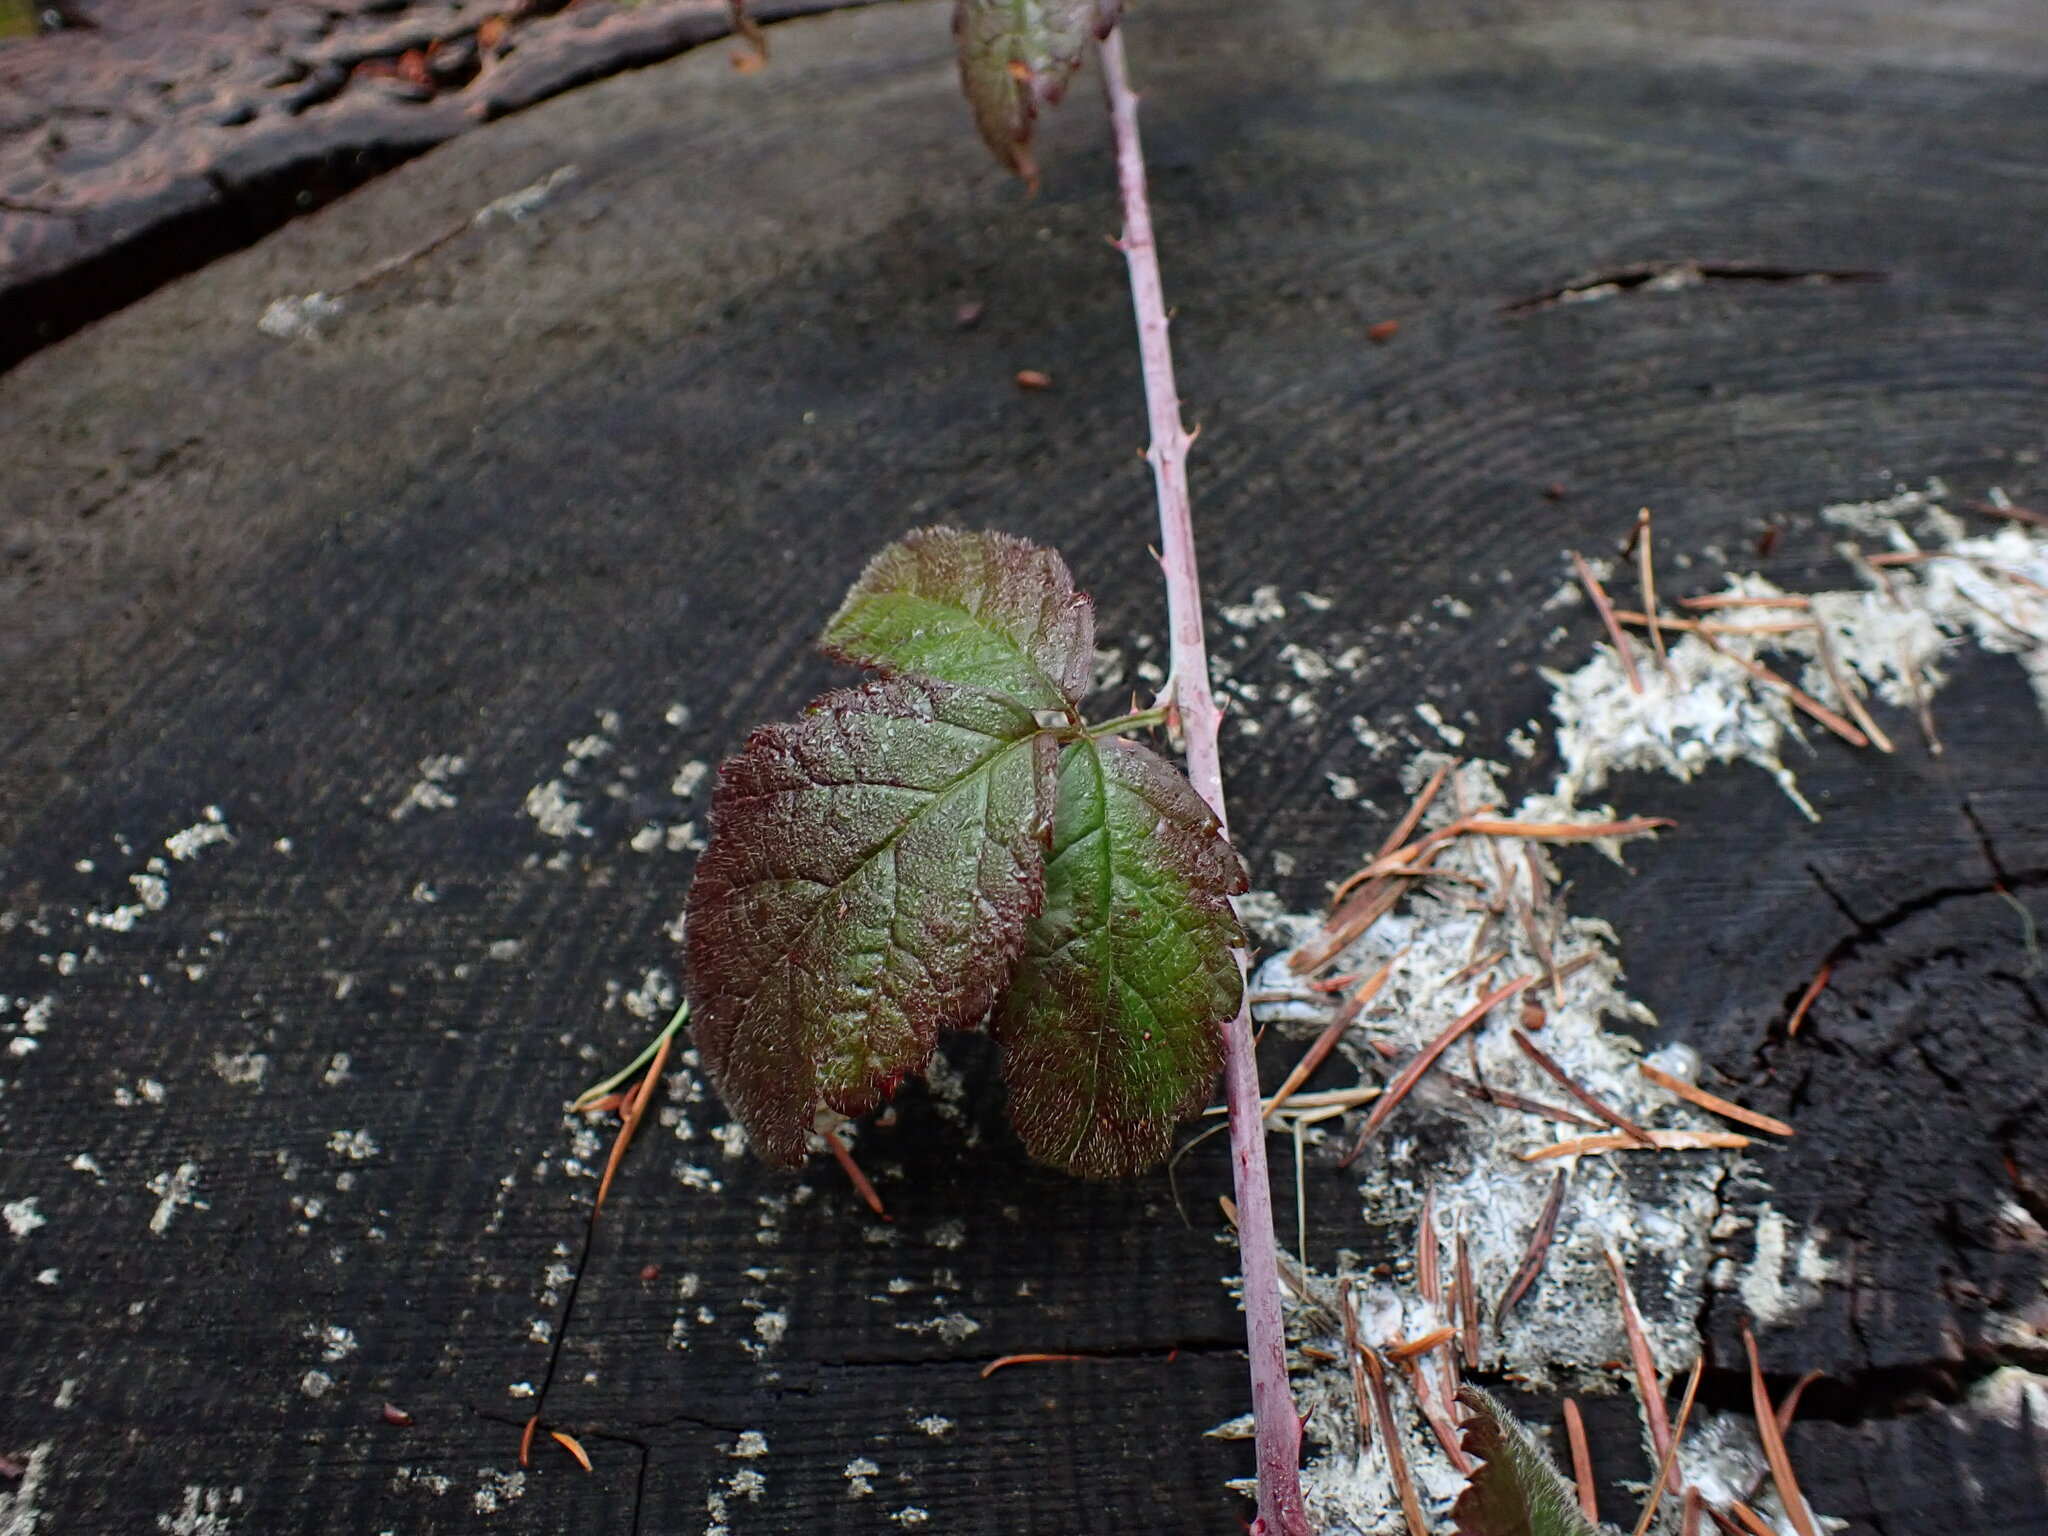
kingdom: Plantae
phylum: Tracheophyta
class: Magnoliopsida
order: Rosales
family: Rosaceae
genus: Rubus
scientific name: Rubus ursinus
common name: Pacific blackberry
